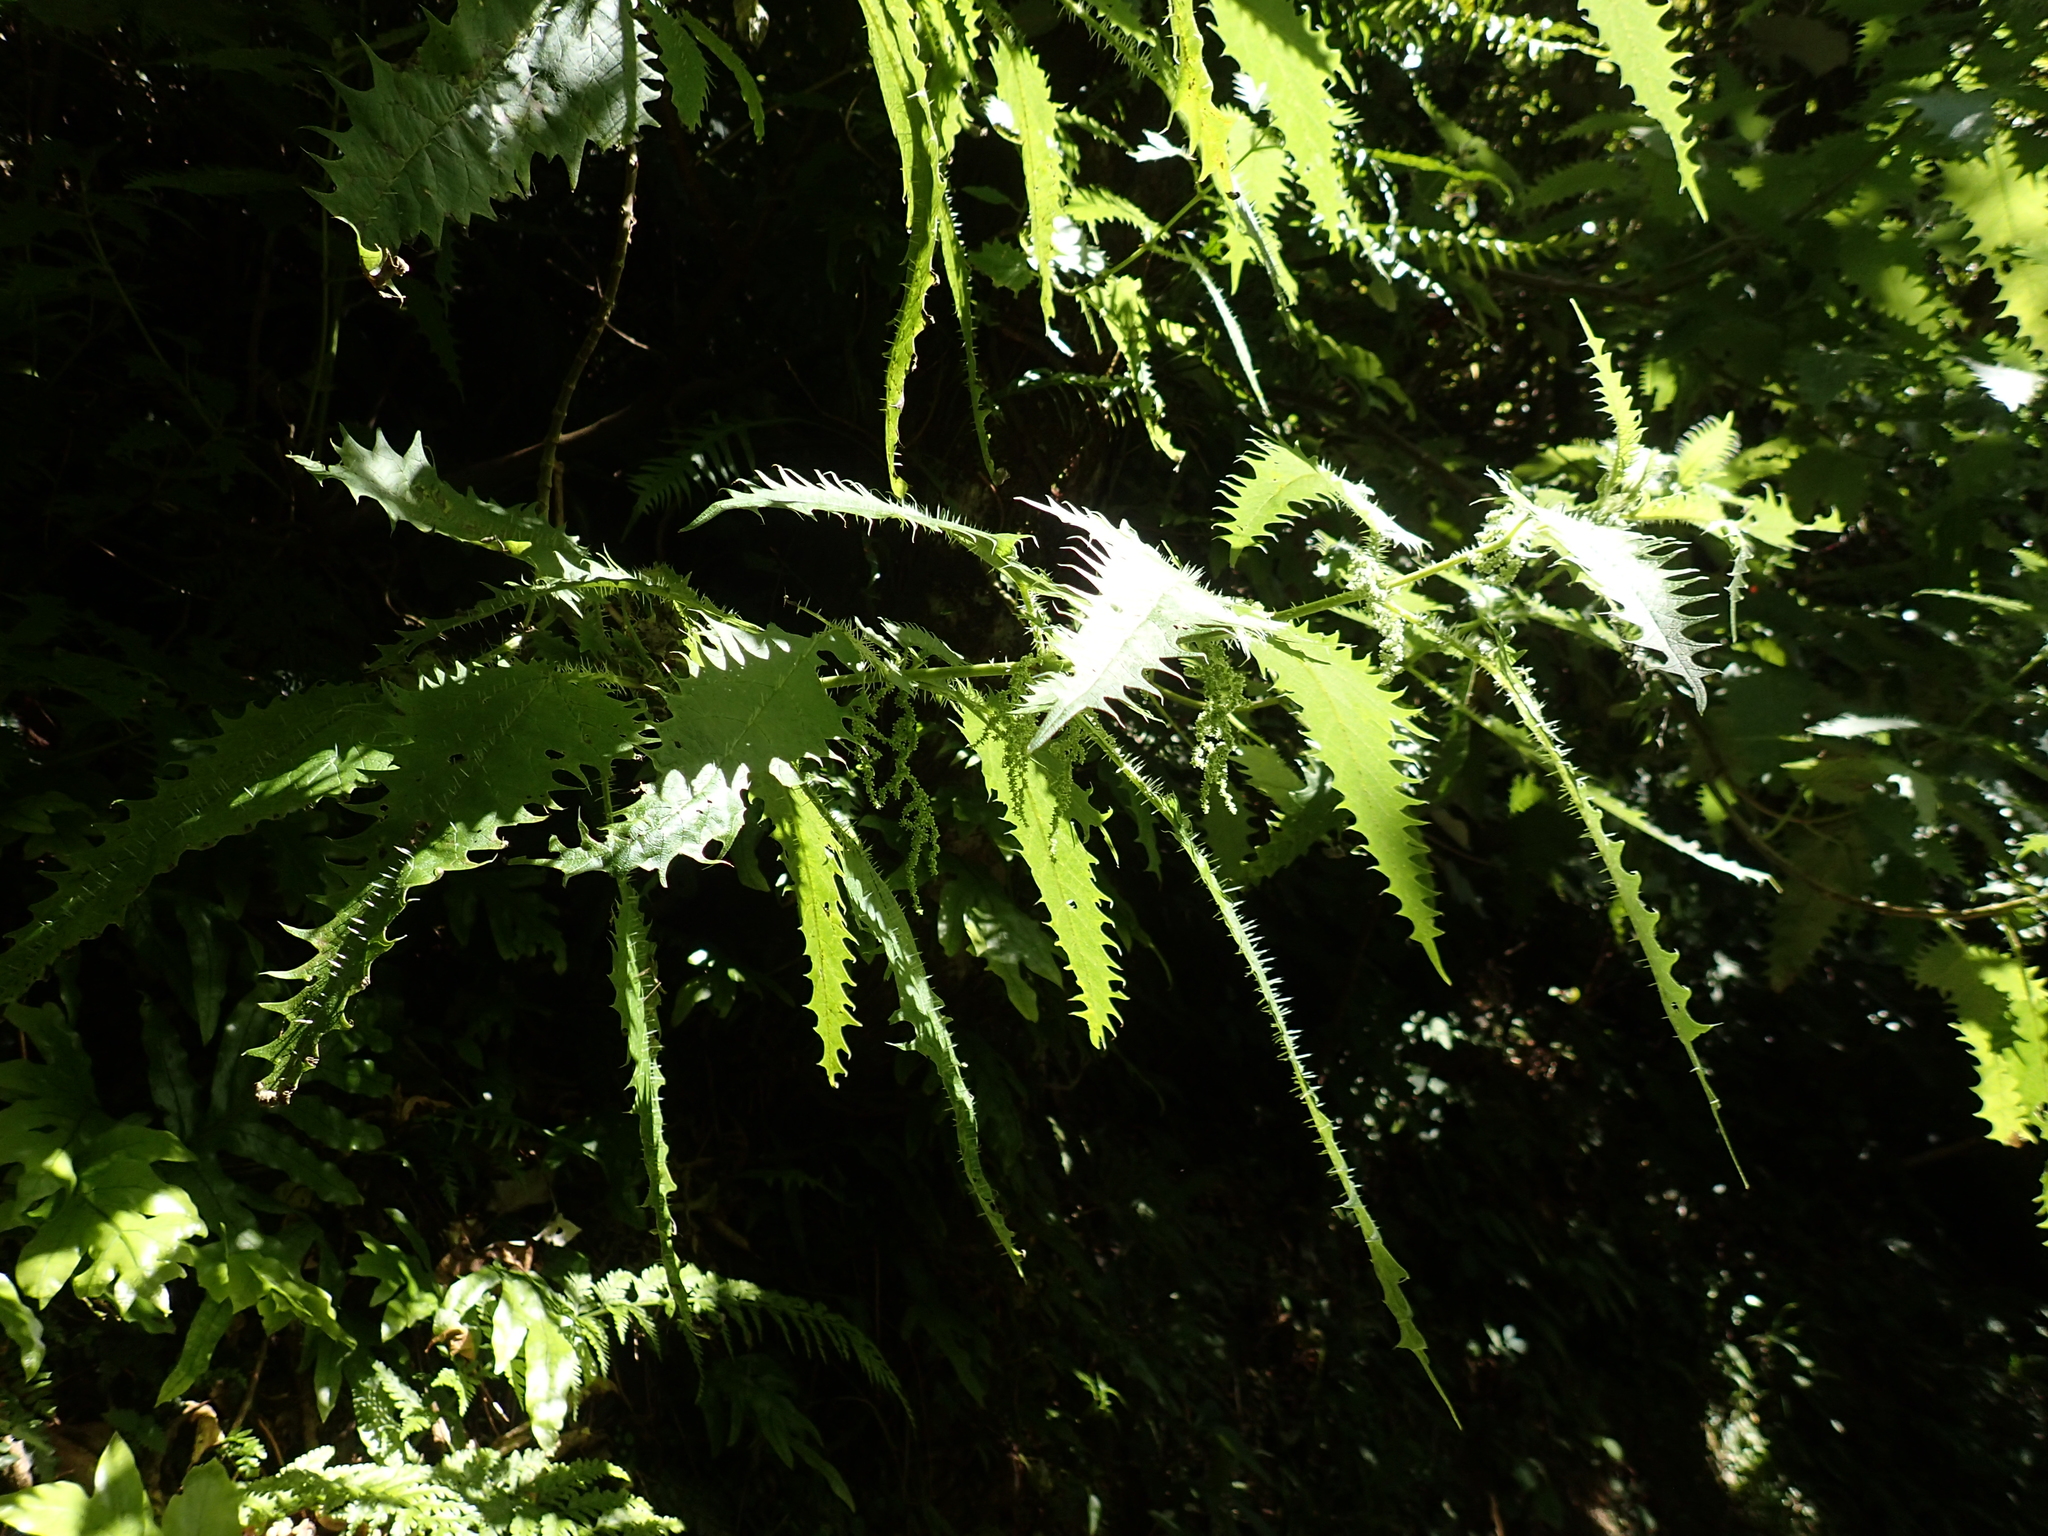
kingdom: Plantae
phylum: Tracheophyta
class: Magnoliopsida
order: Rosales
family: Urticaceae
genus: Urtica
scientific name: Urtica ferox
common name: Tree nettle
